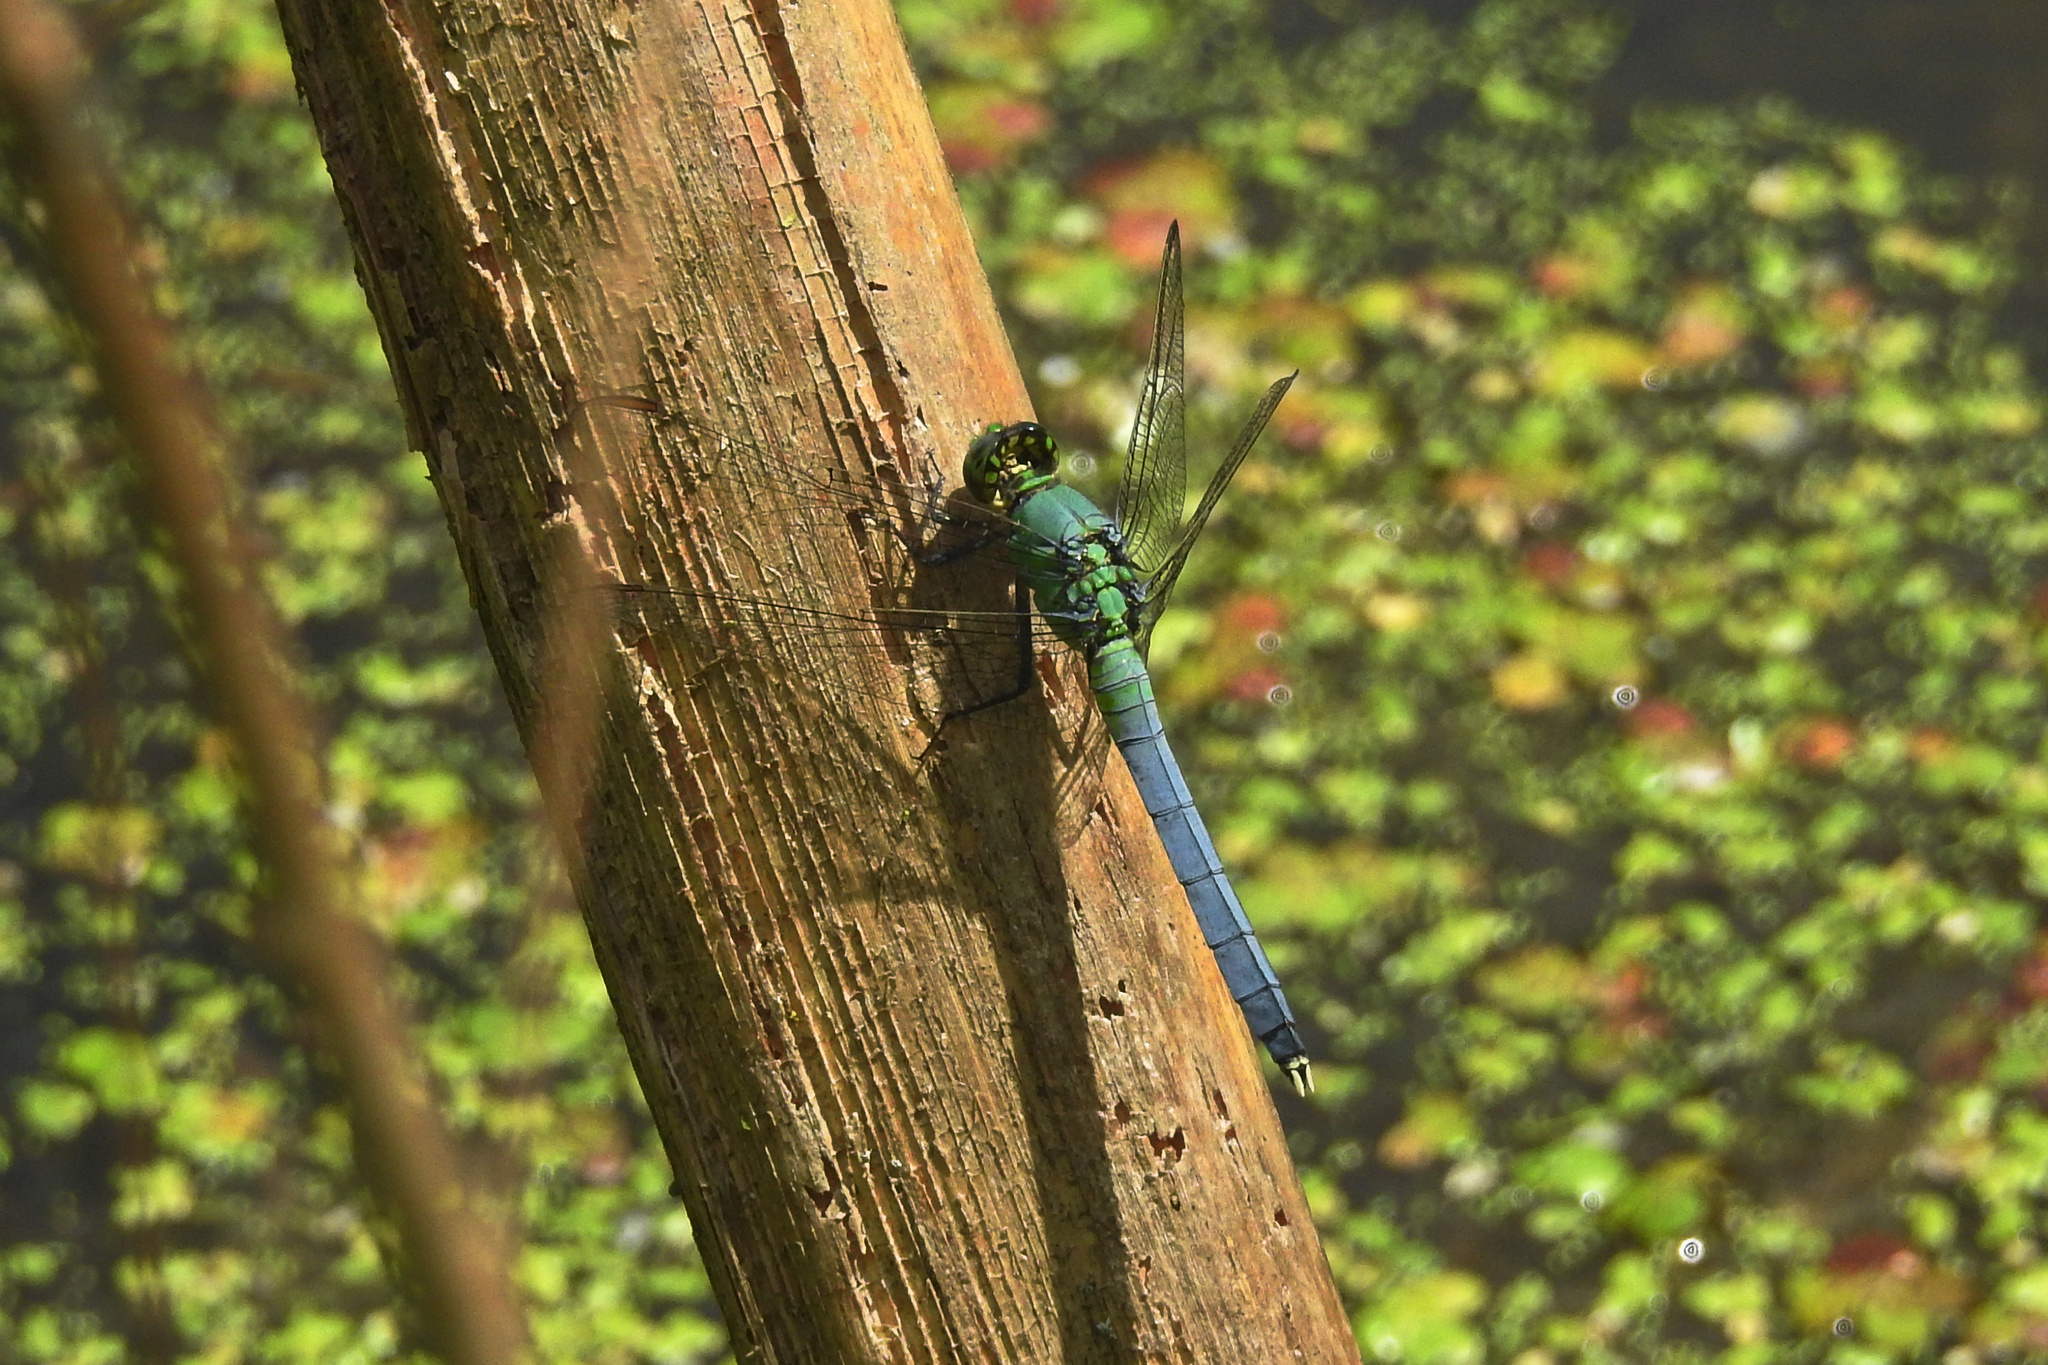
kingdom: Animalia
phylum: Arthropoda
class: Insecta
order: Odonata
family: Libellulidae
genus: Erythemis
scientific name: Erythemis simplicicollis
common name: Eastern pondhawk
